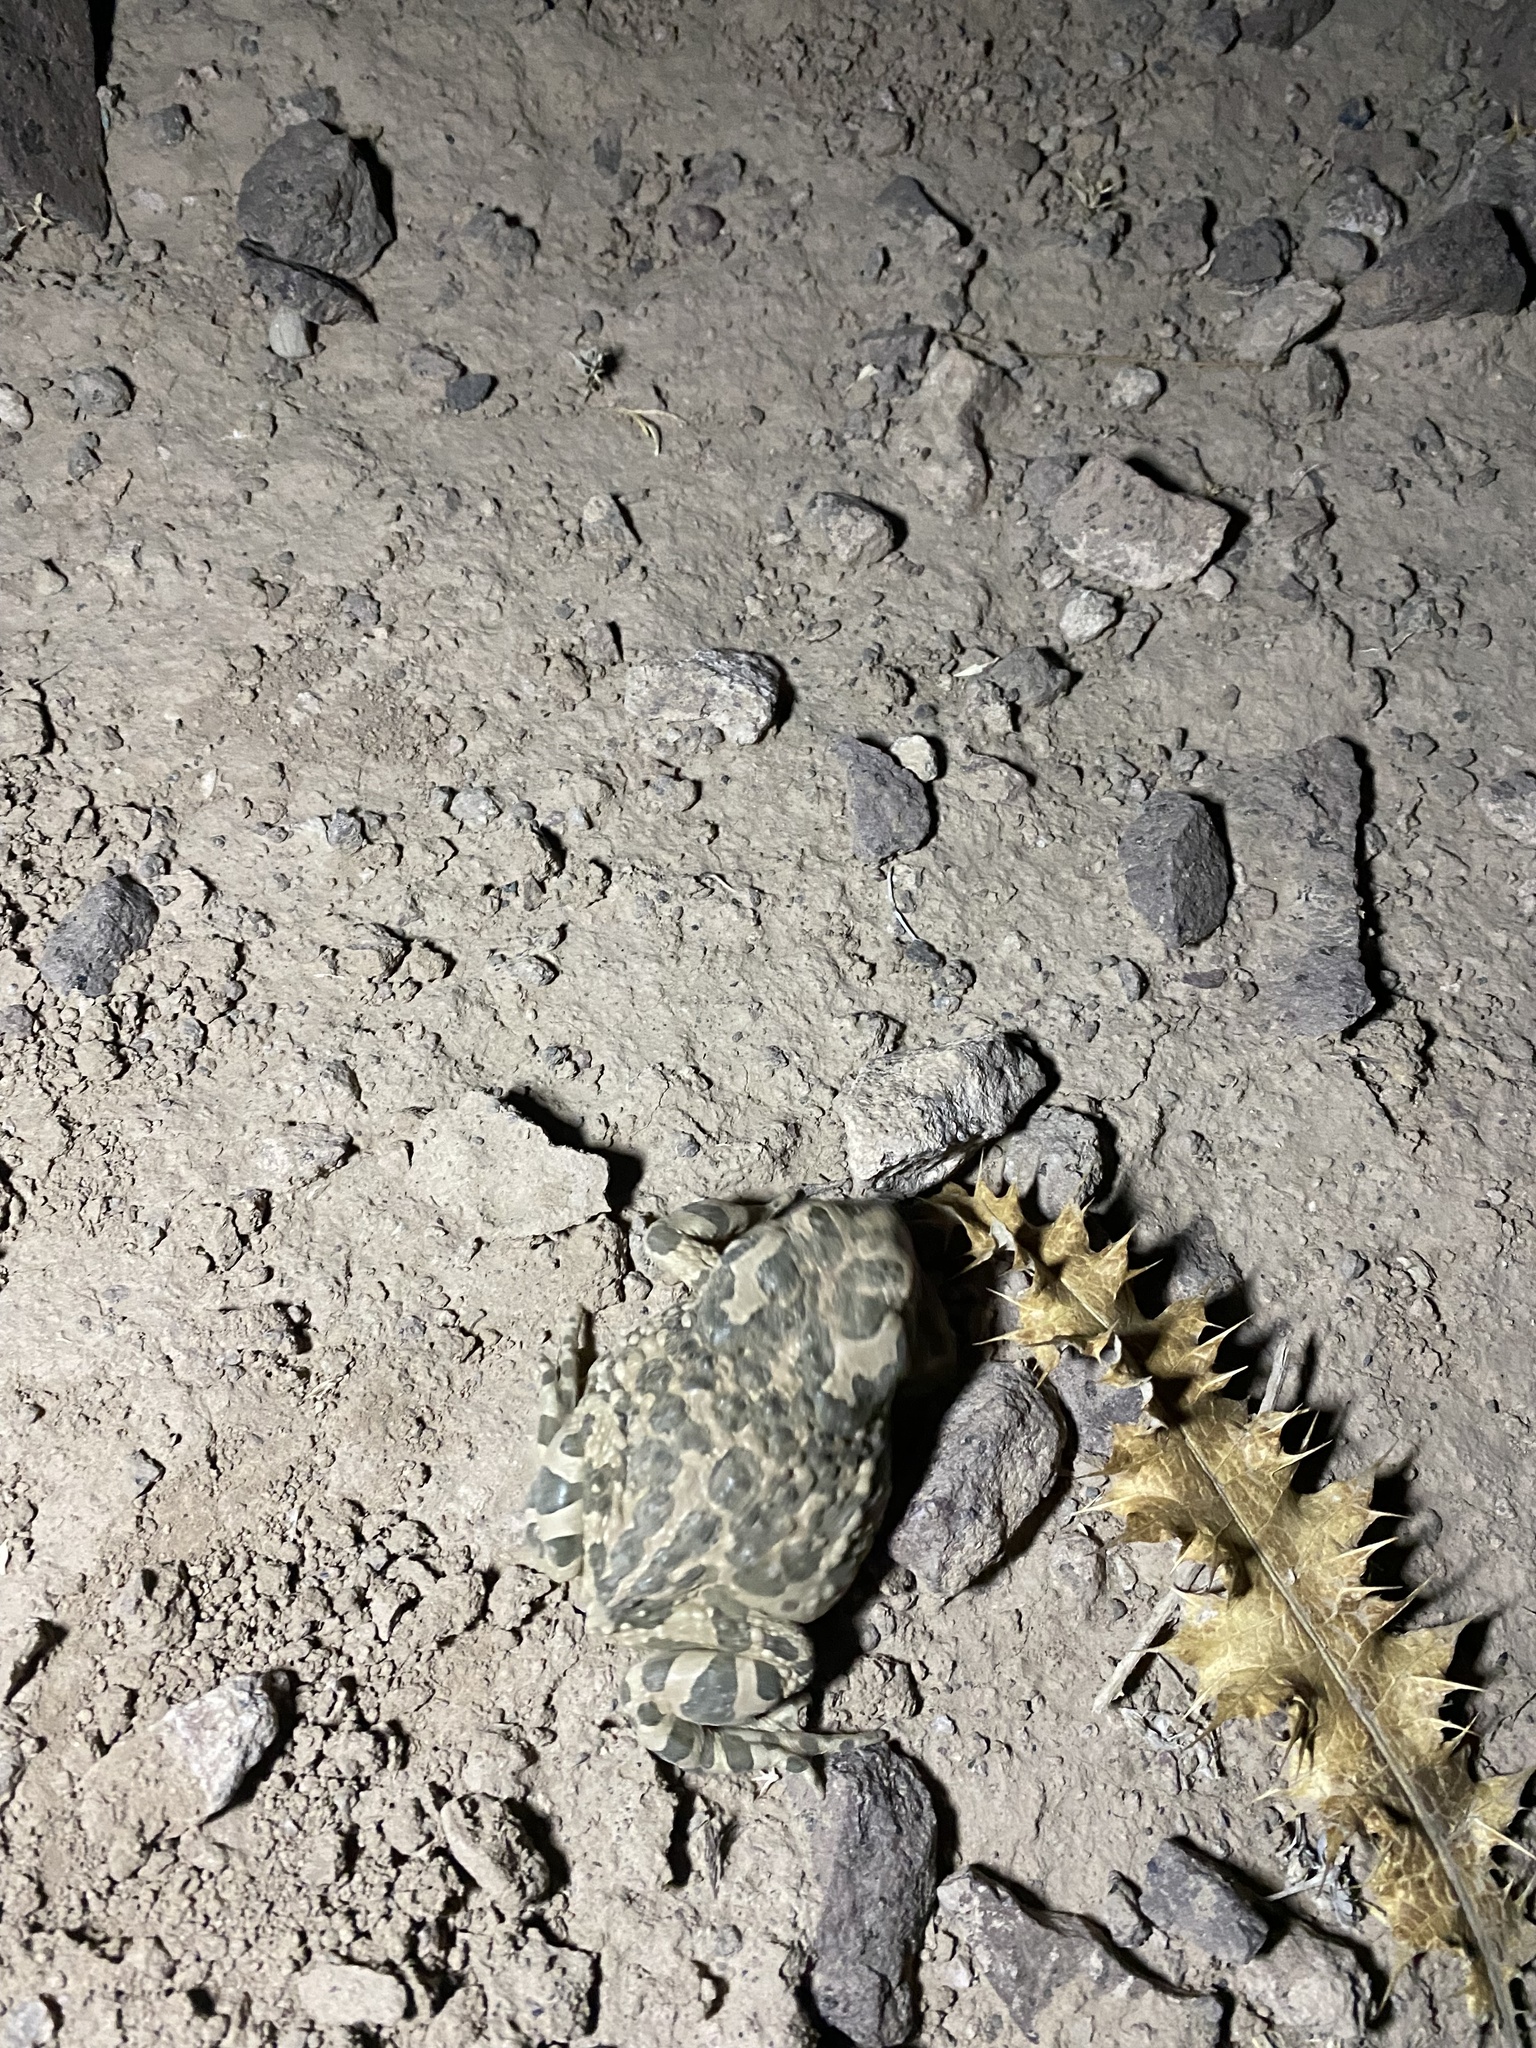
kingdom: Animalia
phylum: Chordata
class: Amphibia
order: Anura
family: Bufonidae
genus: Bufotes
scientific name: Bufotes viridis
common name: European green toad
